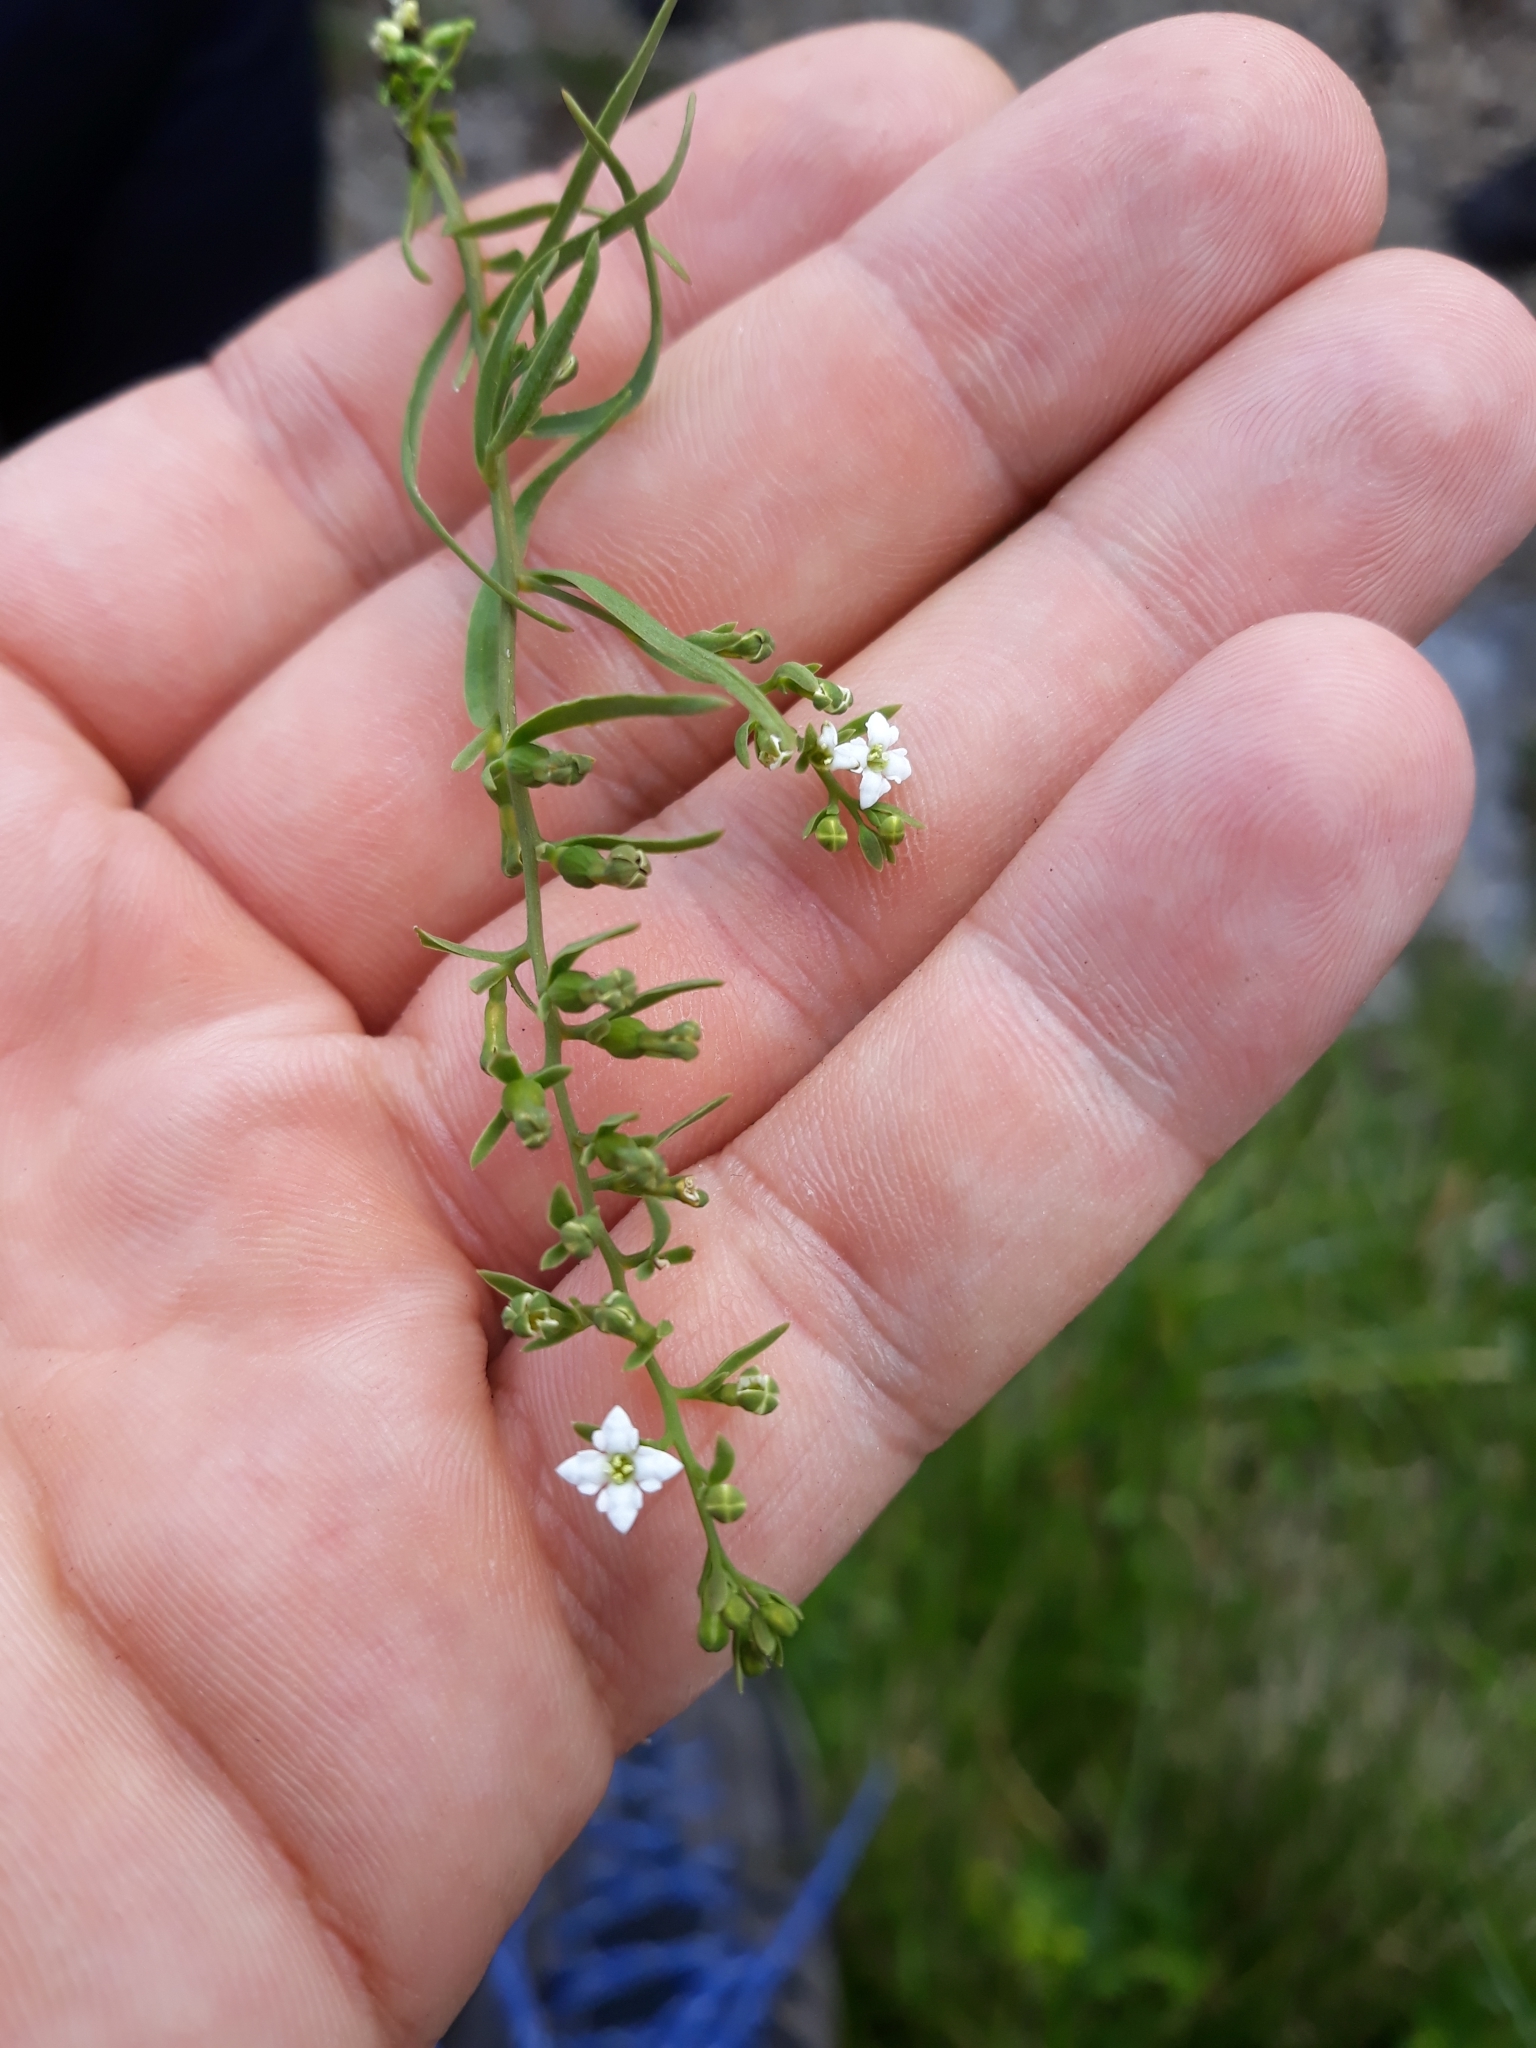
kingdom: Plantae
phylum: Tracheophyta
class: Magnoliopsida
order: Santalales
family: Thesiaceae
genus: Thesium
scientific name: Thesium alpinum
